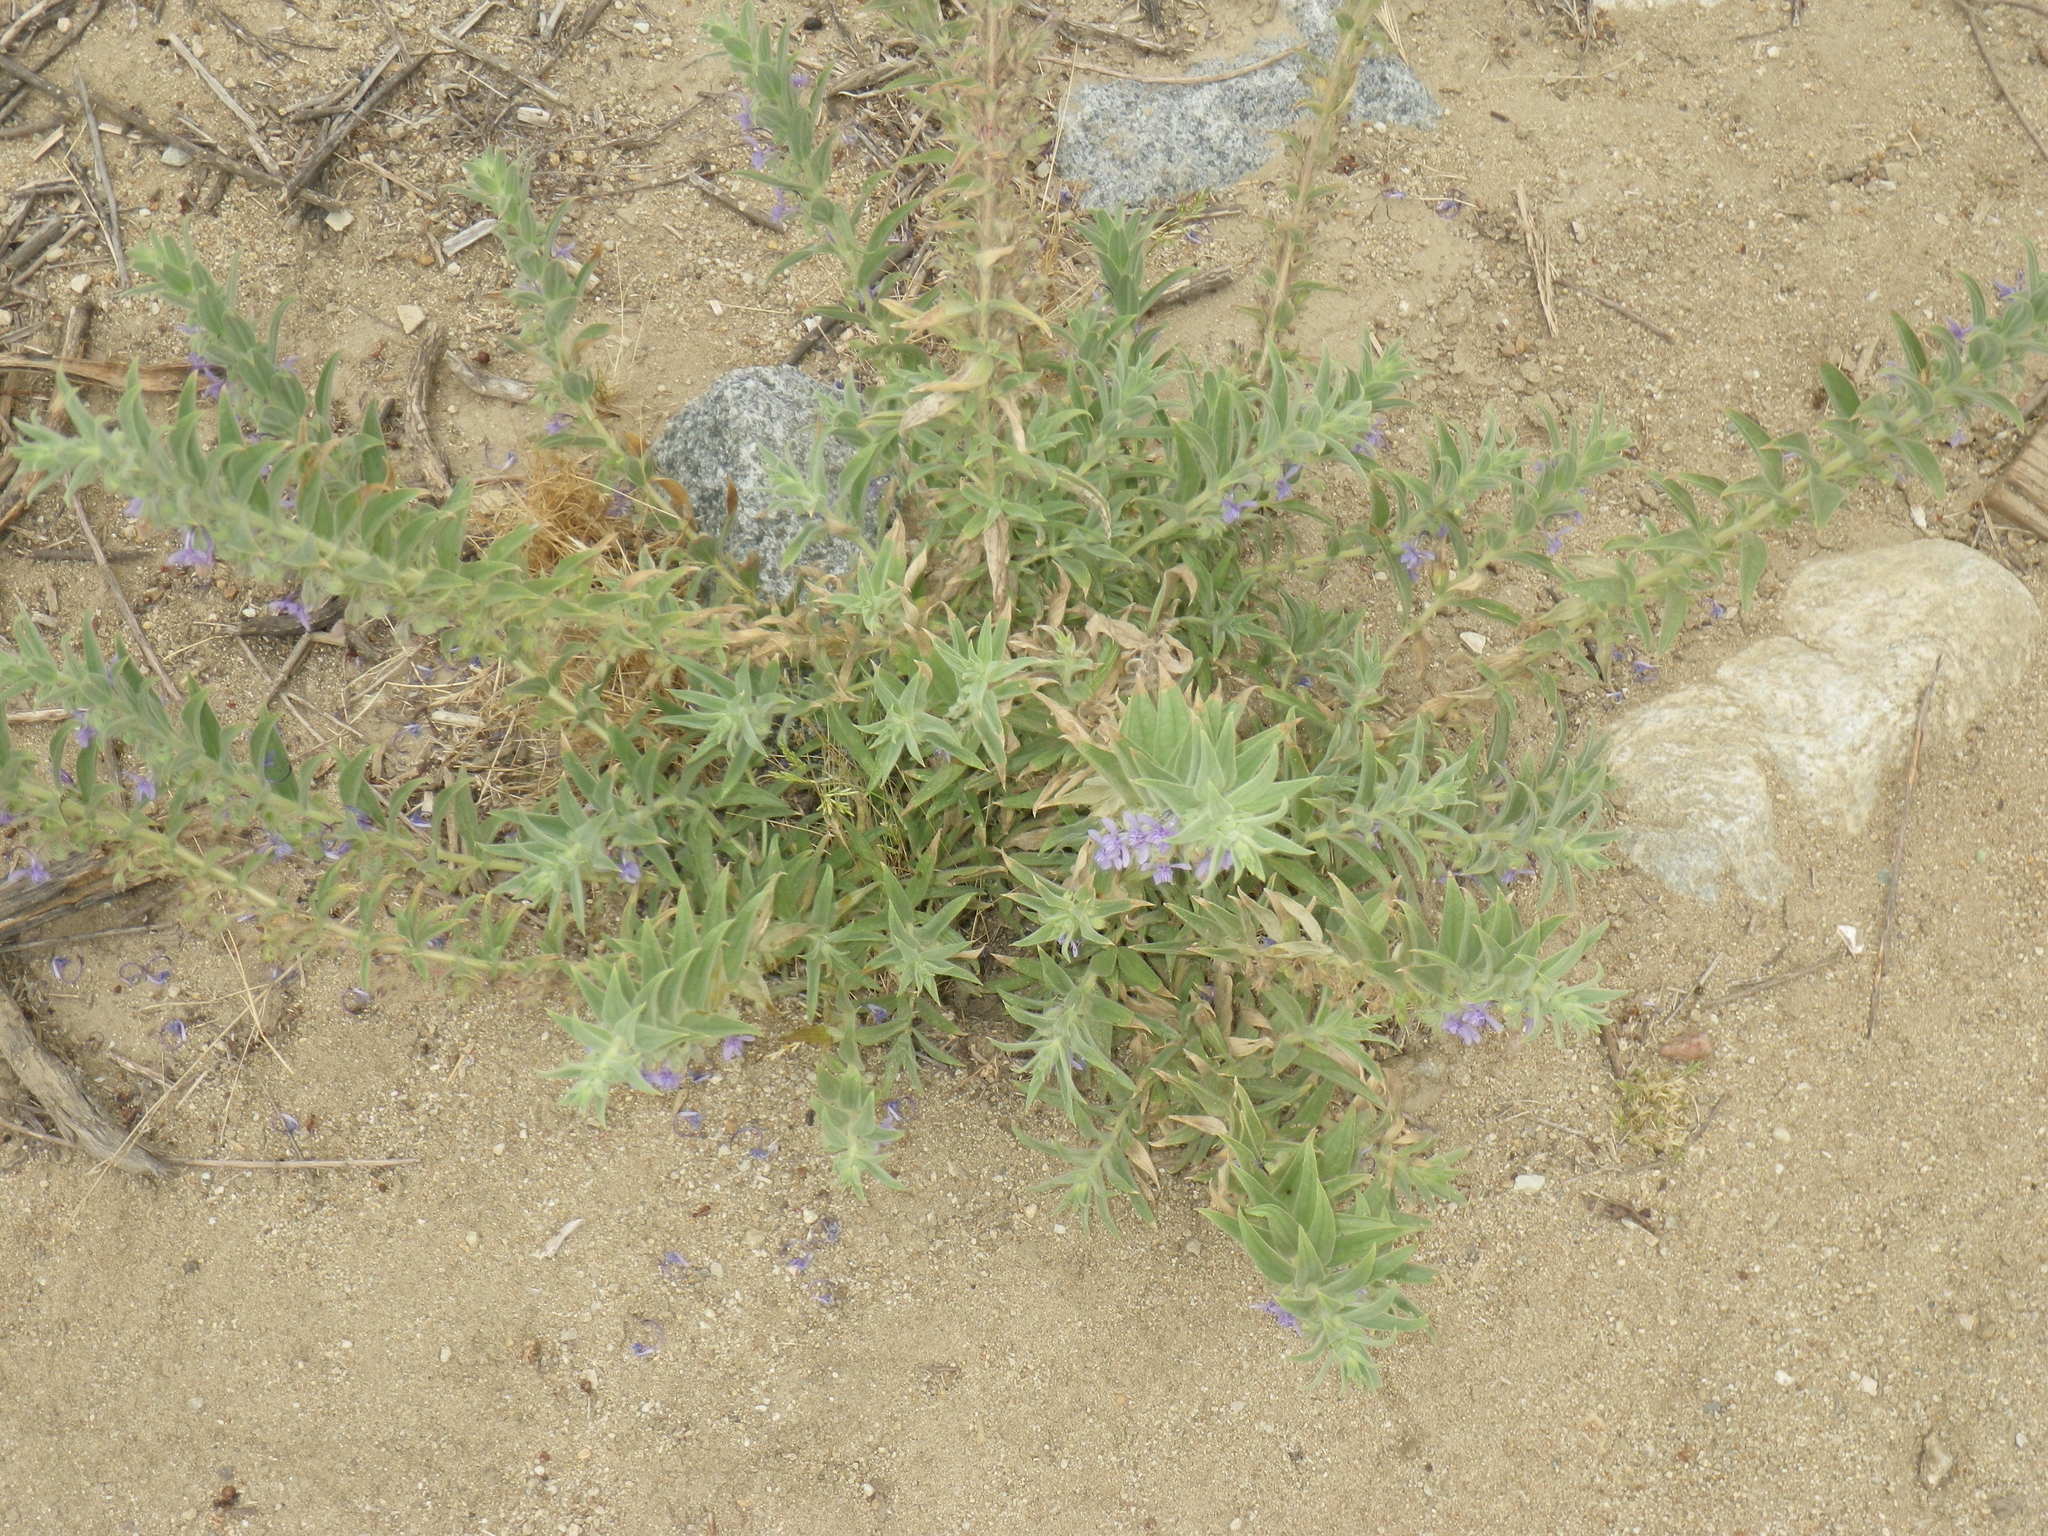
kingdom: Plantae
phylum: Tracheophyta
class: Magnoliopsida
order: Lamiales
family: Lamiaceae
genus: Trichostema
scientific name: Trichostema lanceolatum
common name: Vinegar-weed
